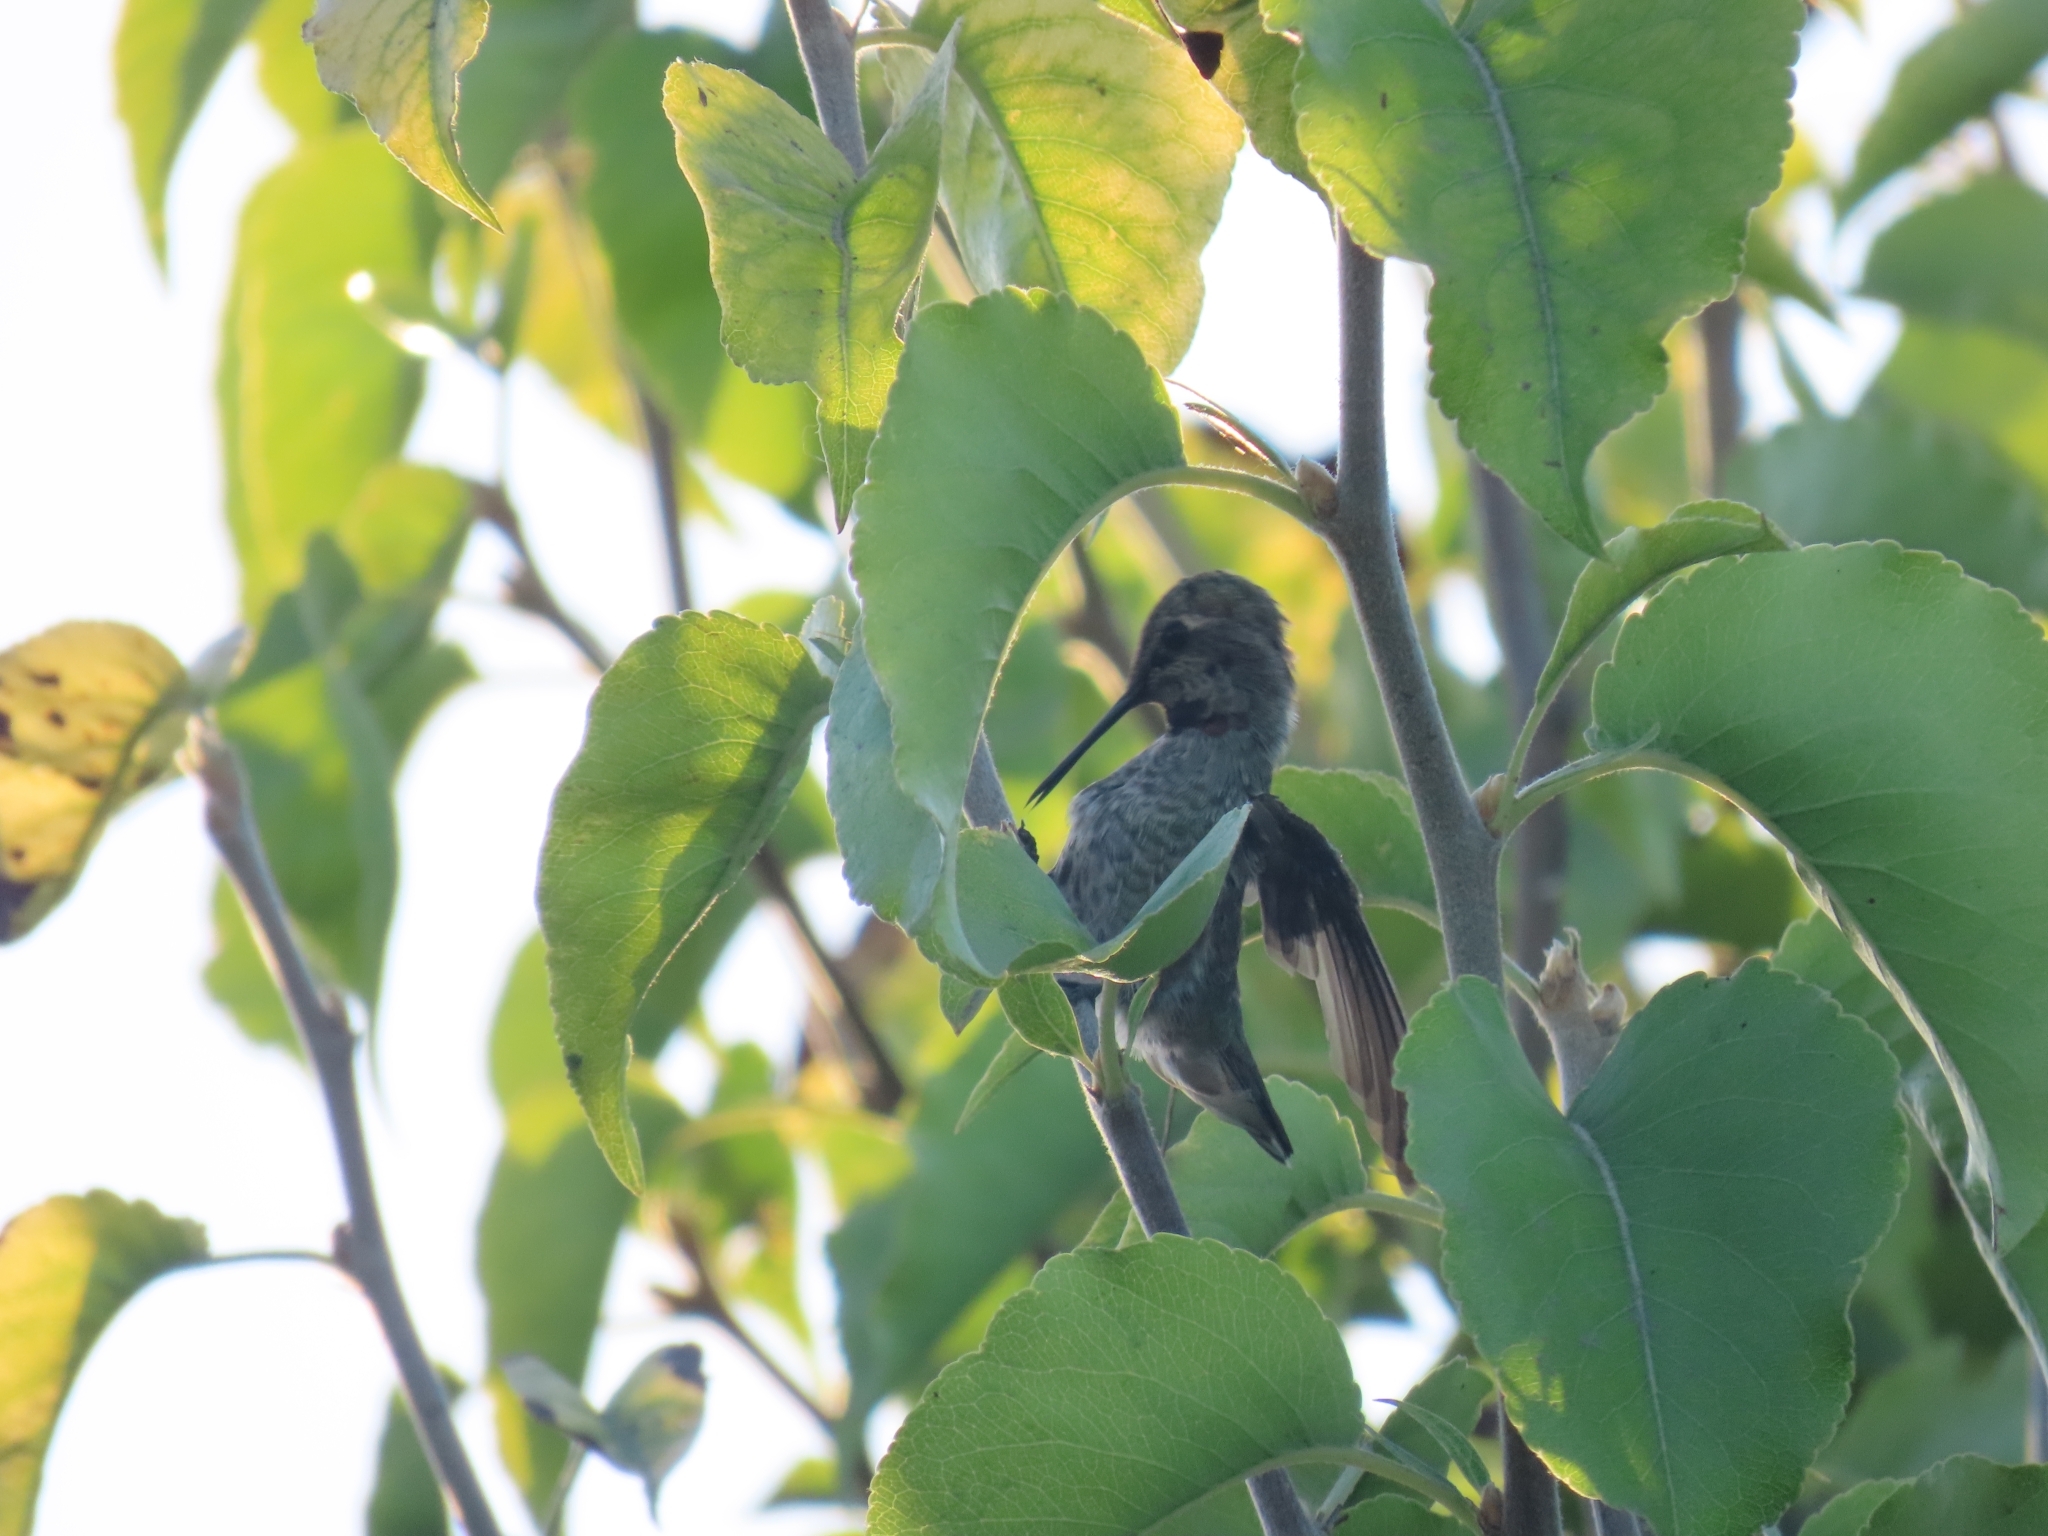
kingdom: Animalia
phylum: Chordata
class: Aves
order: Apodiformes
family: Trochilidae
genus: Calypte
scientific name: Calypte anna
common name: Anna's hummingbird
